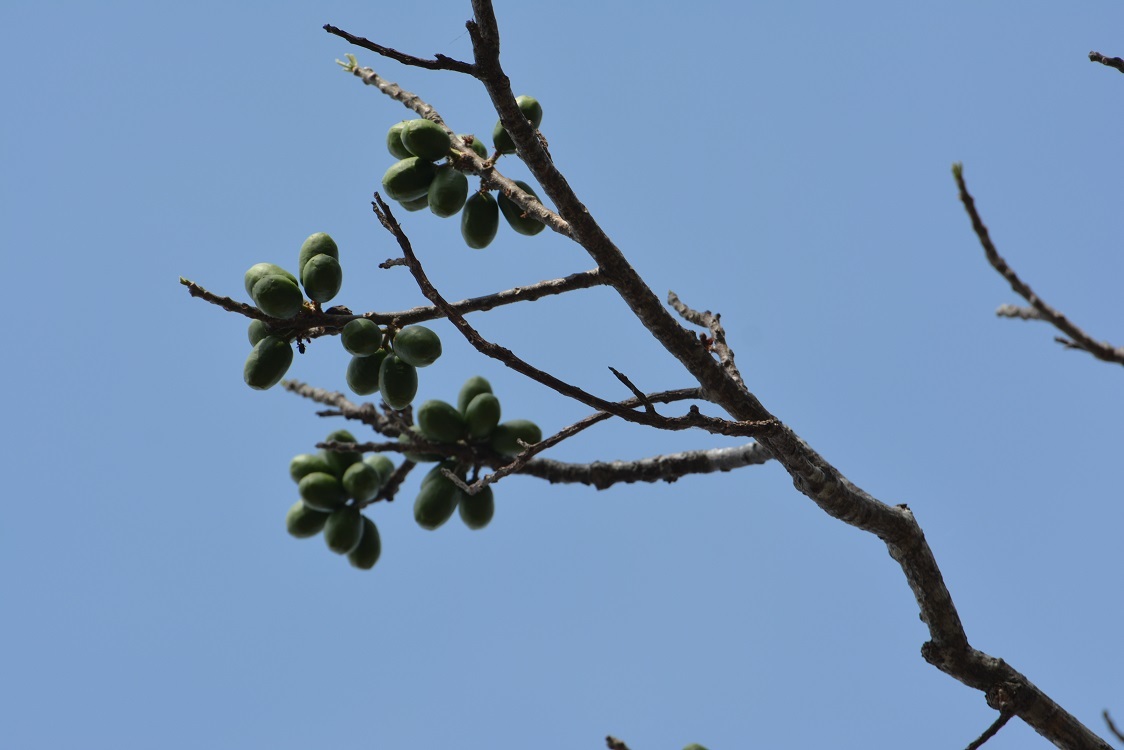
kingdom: Plantae
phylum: Tracheophyta
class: Magnoliopsida
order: Sapindales
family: Anacardiaceae
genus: Spondias
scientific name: Spondias purpurea
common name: Purple mombin
